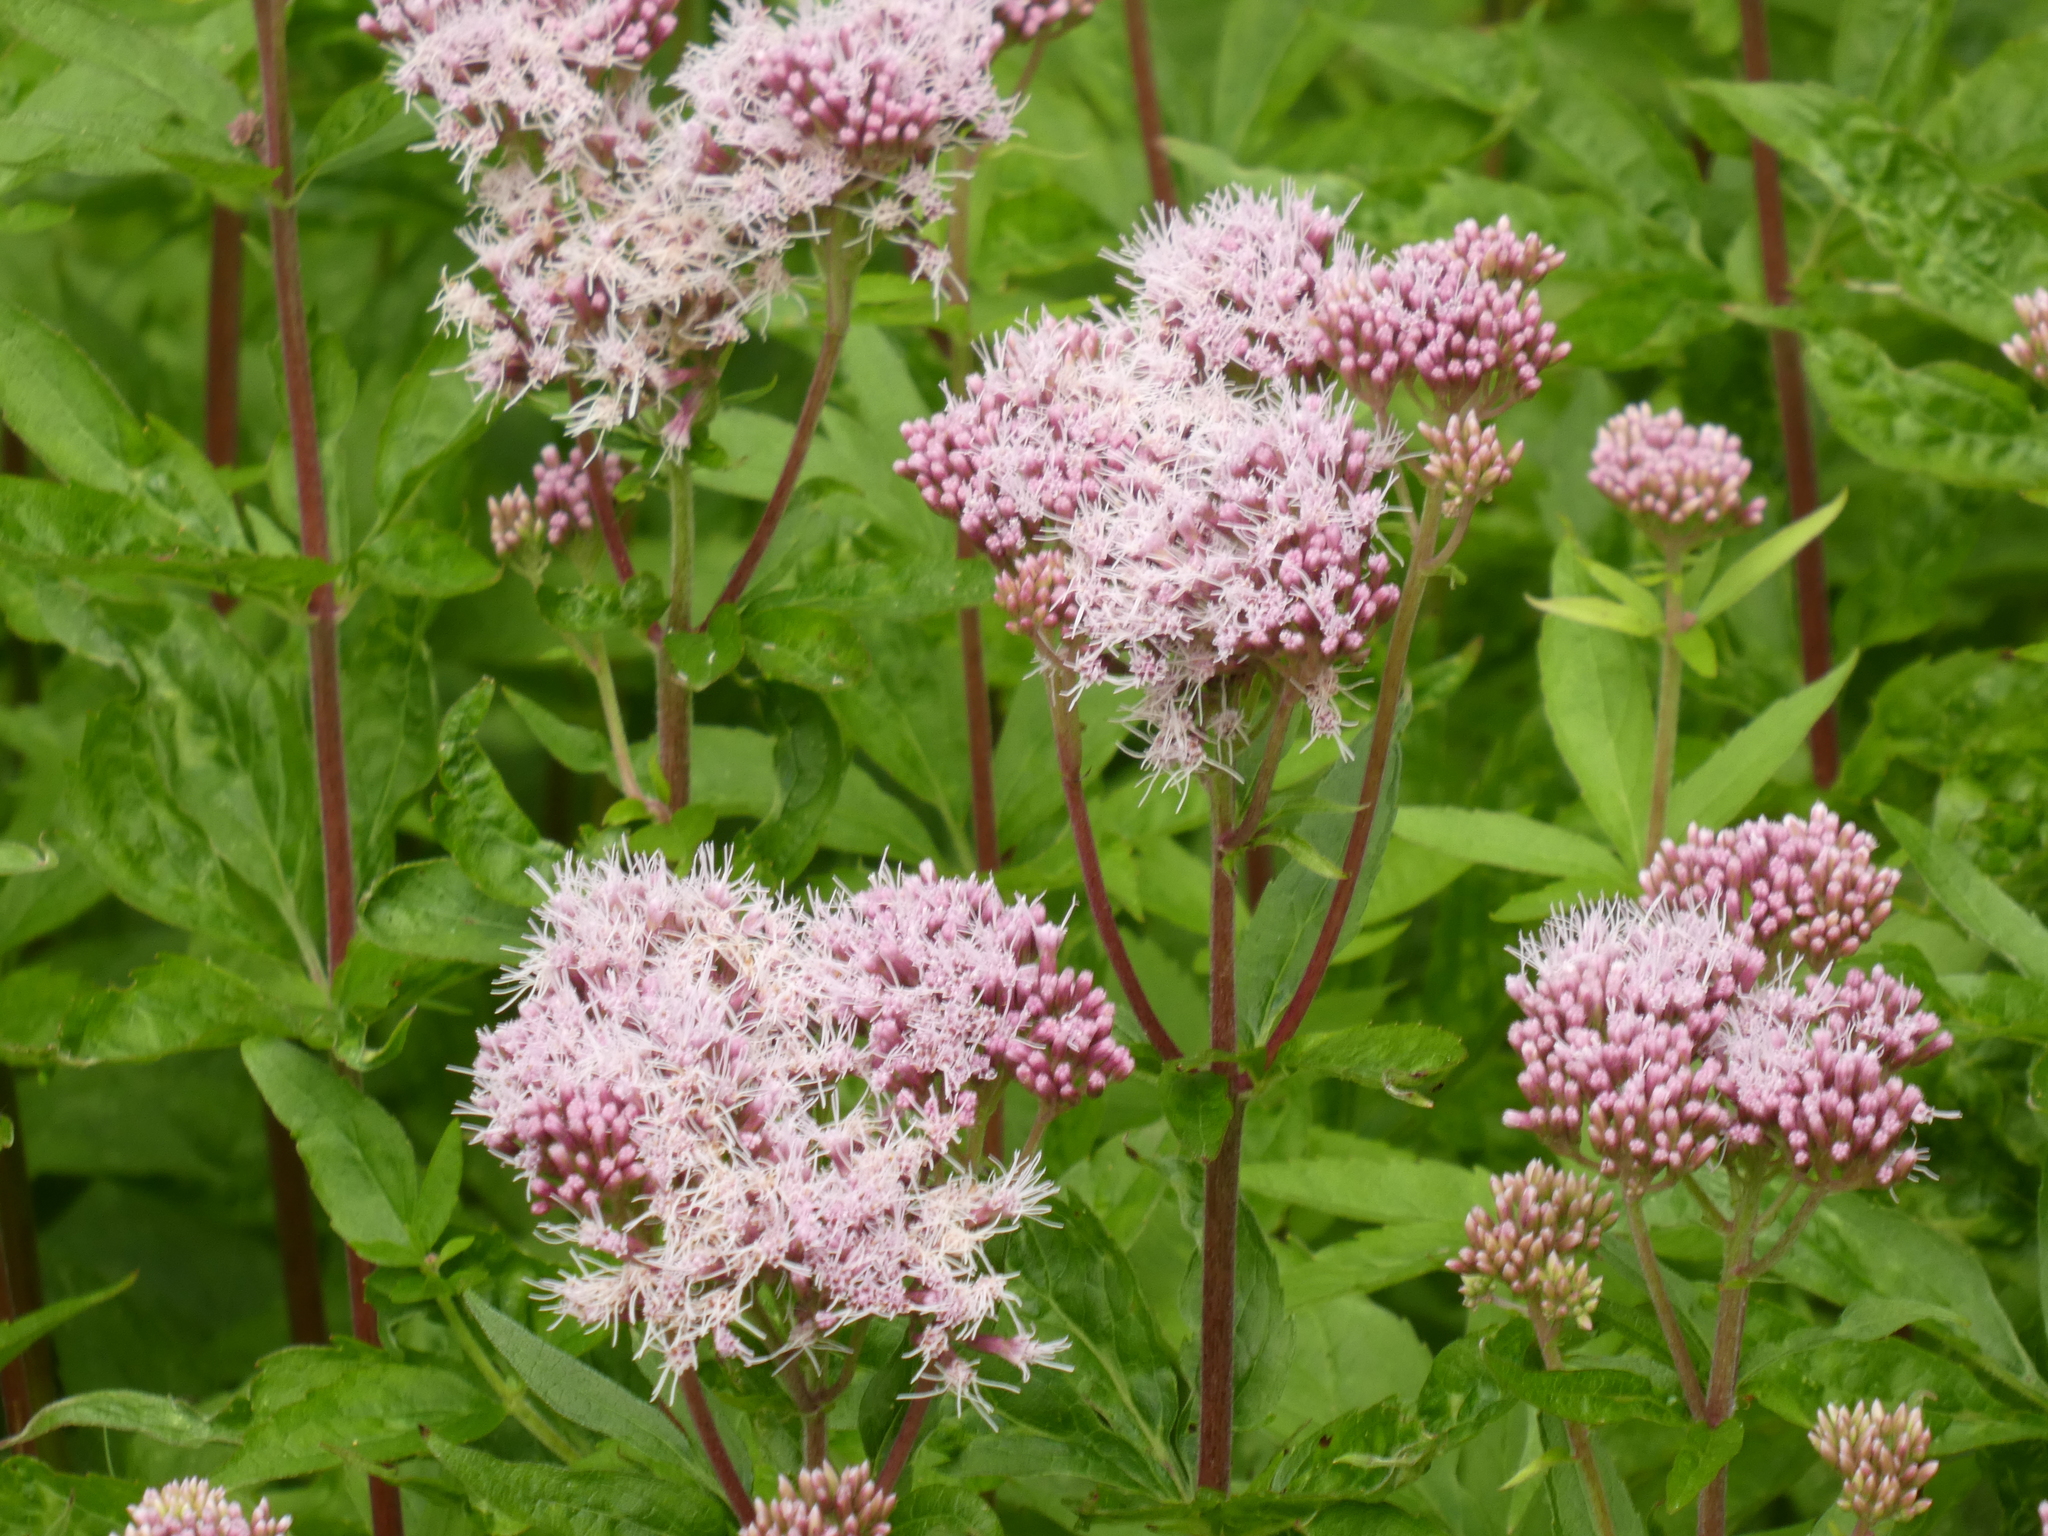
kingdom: Plantae
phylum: Tracheophyta
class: Magnoliopsida
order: Asterales
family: Asteraceae
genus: Eupatorium
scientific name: Eupatorium cannabinum
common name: Hemp-agrimony
